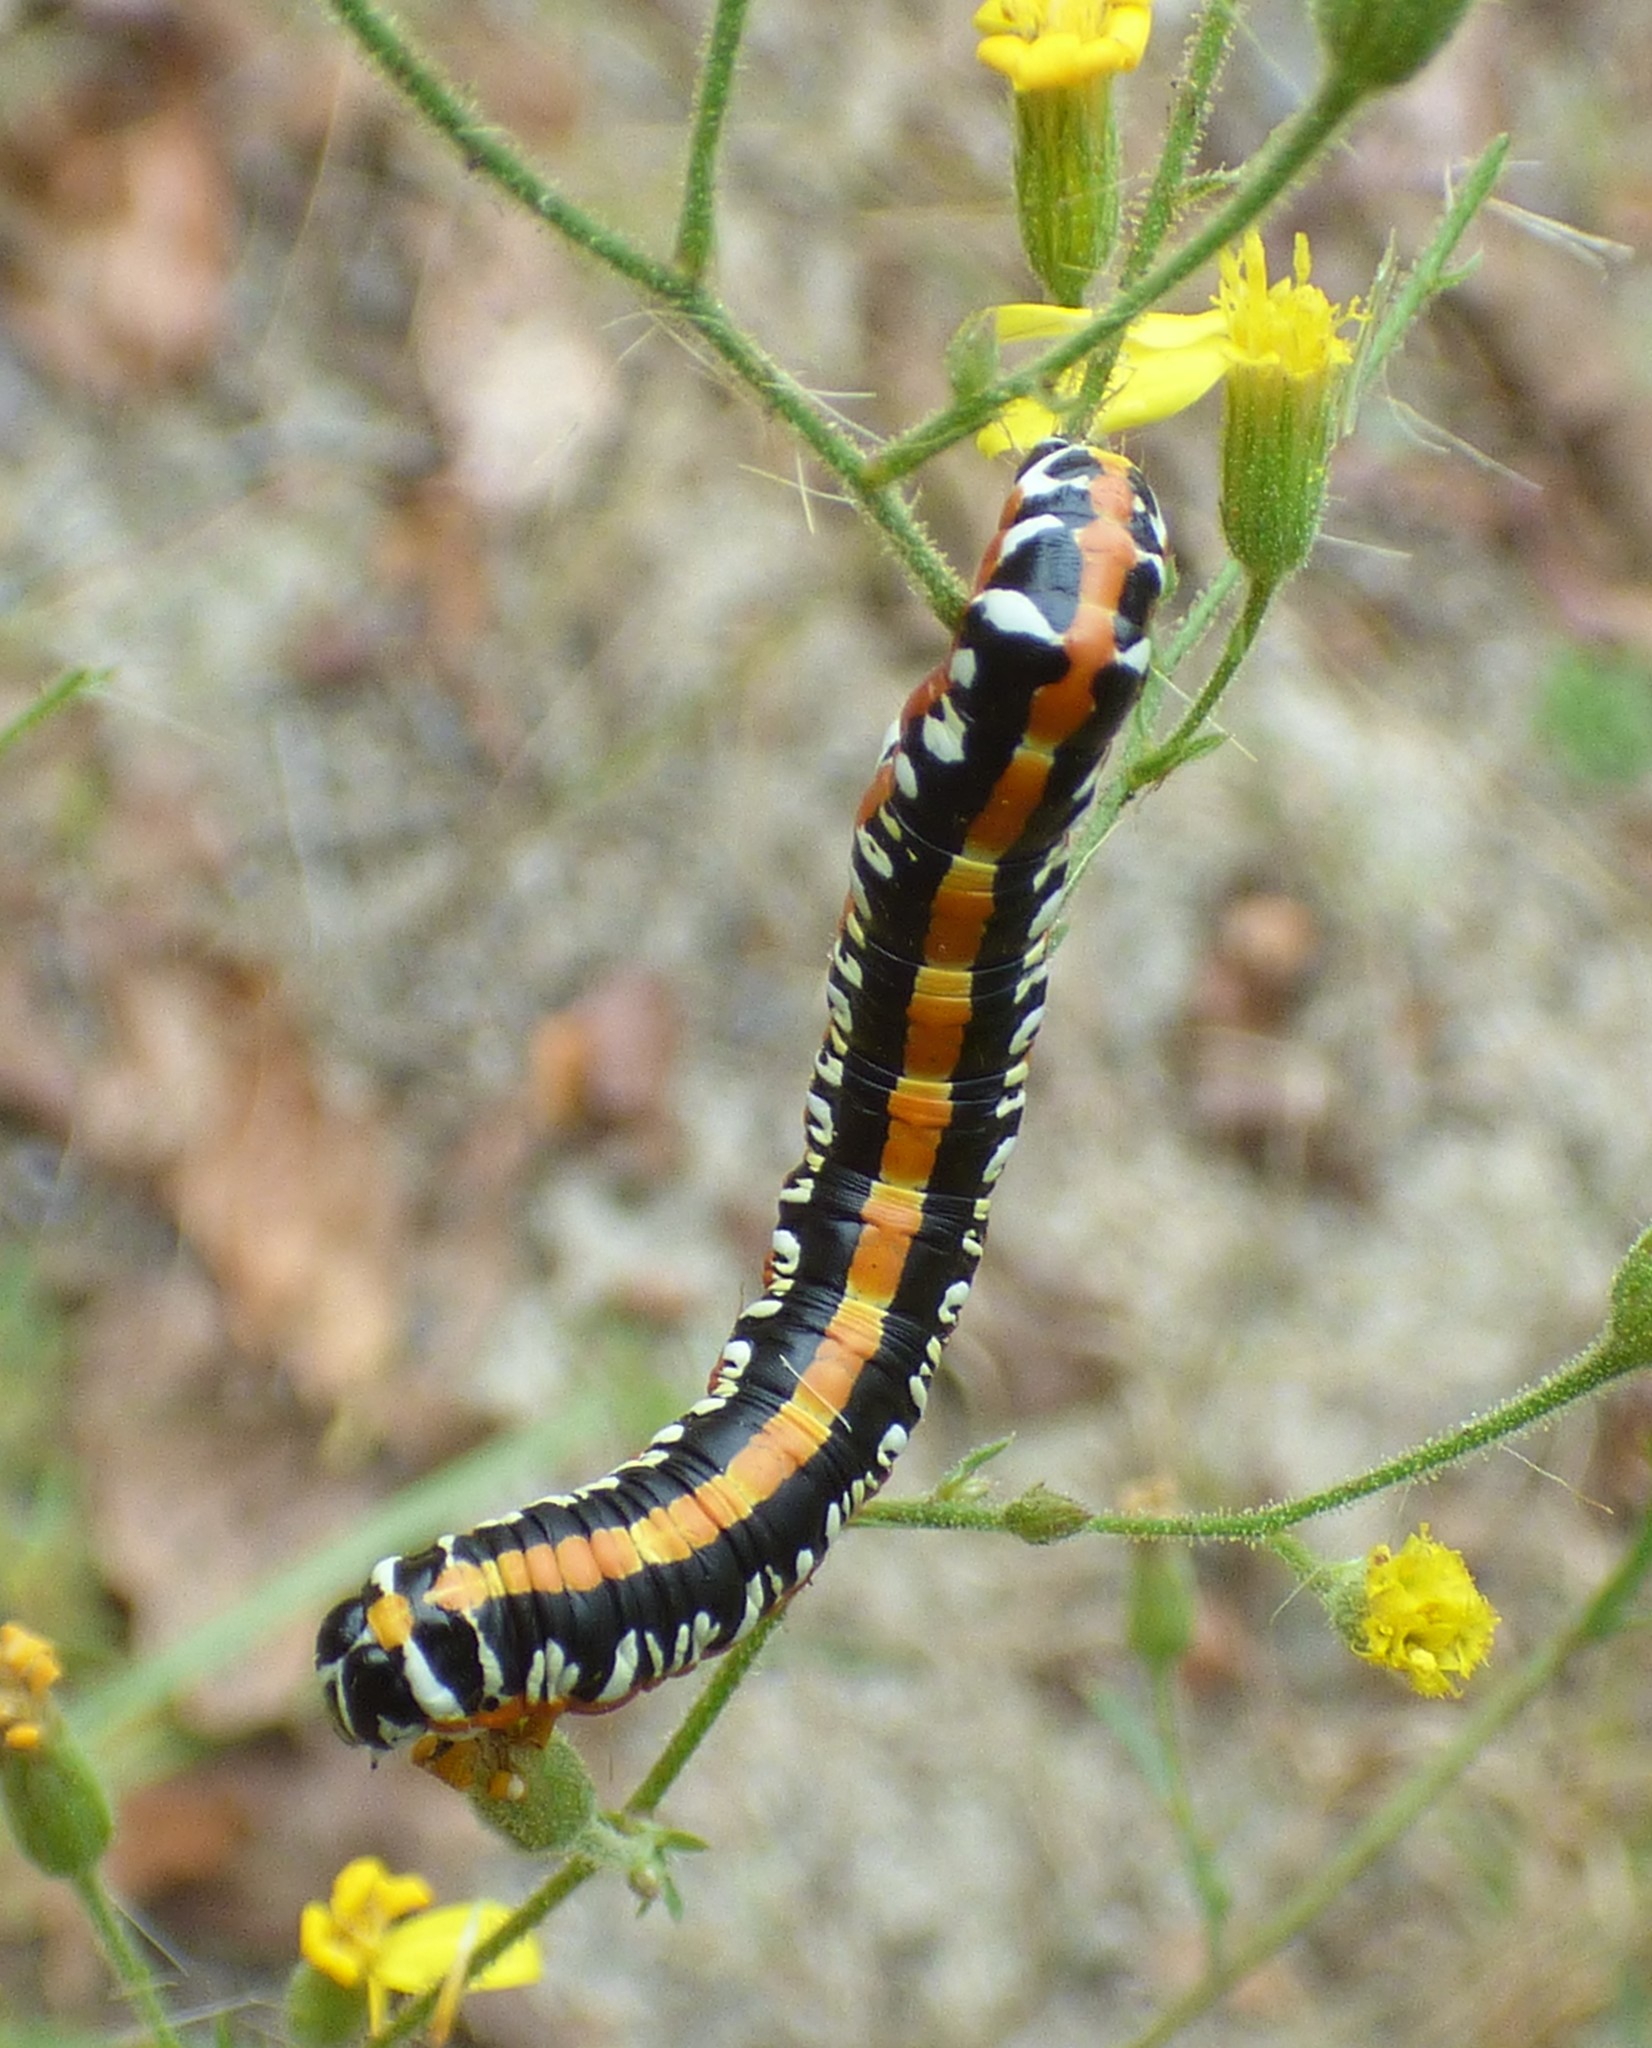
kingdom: Animalia
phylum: Arthropoda
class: Insecta
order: Lepidoptera
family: Noctuidae
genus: Cucullia
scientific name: Cucullia alfarata
